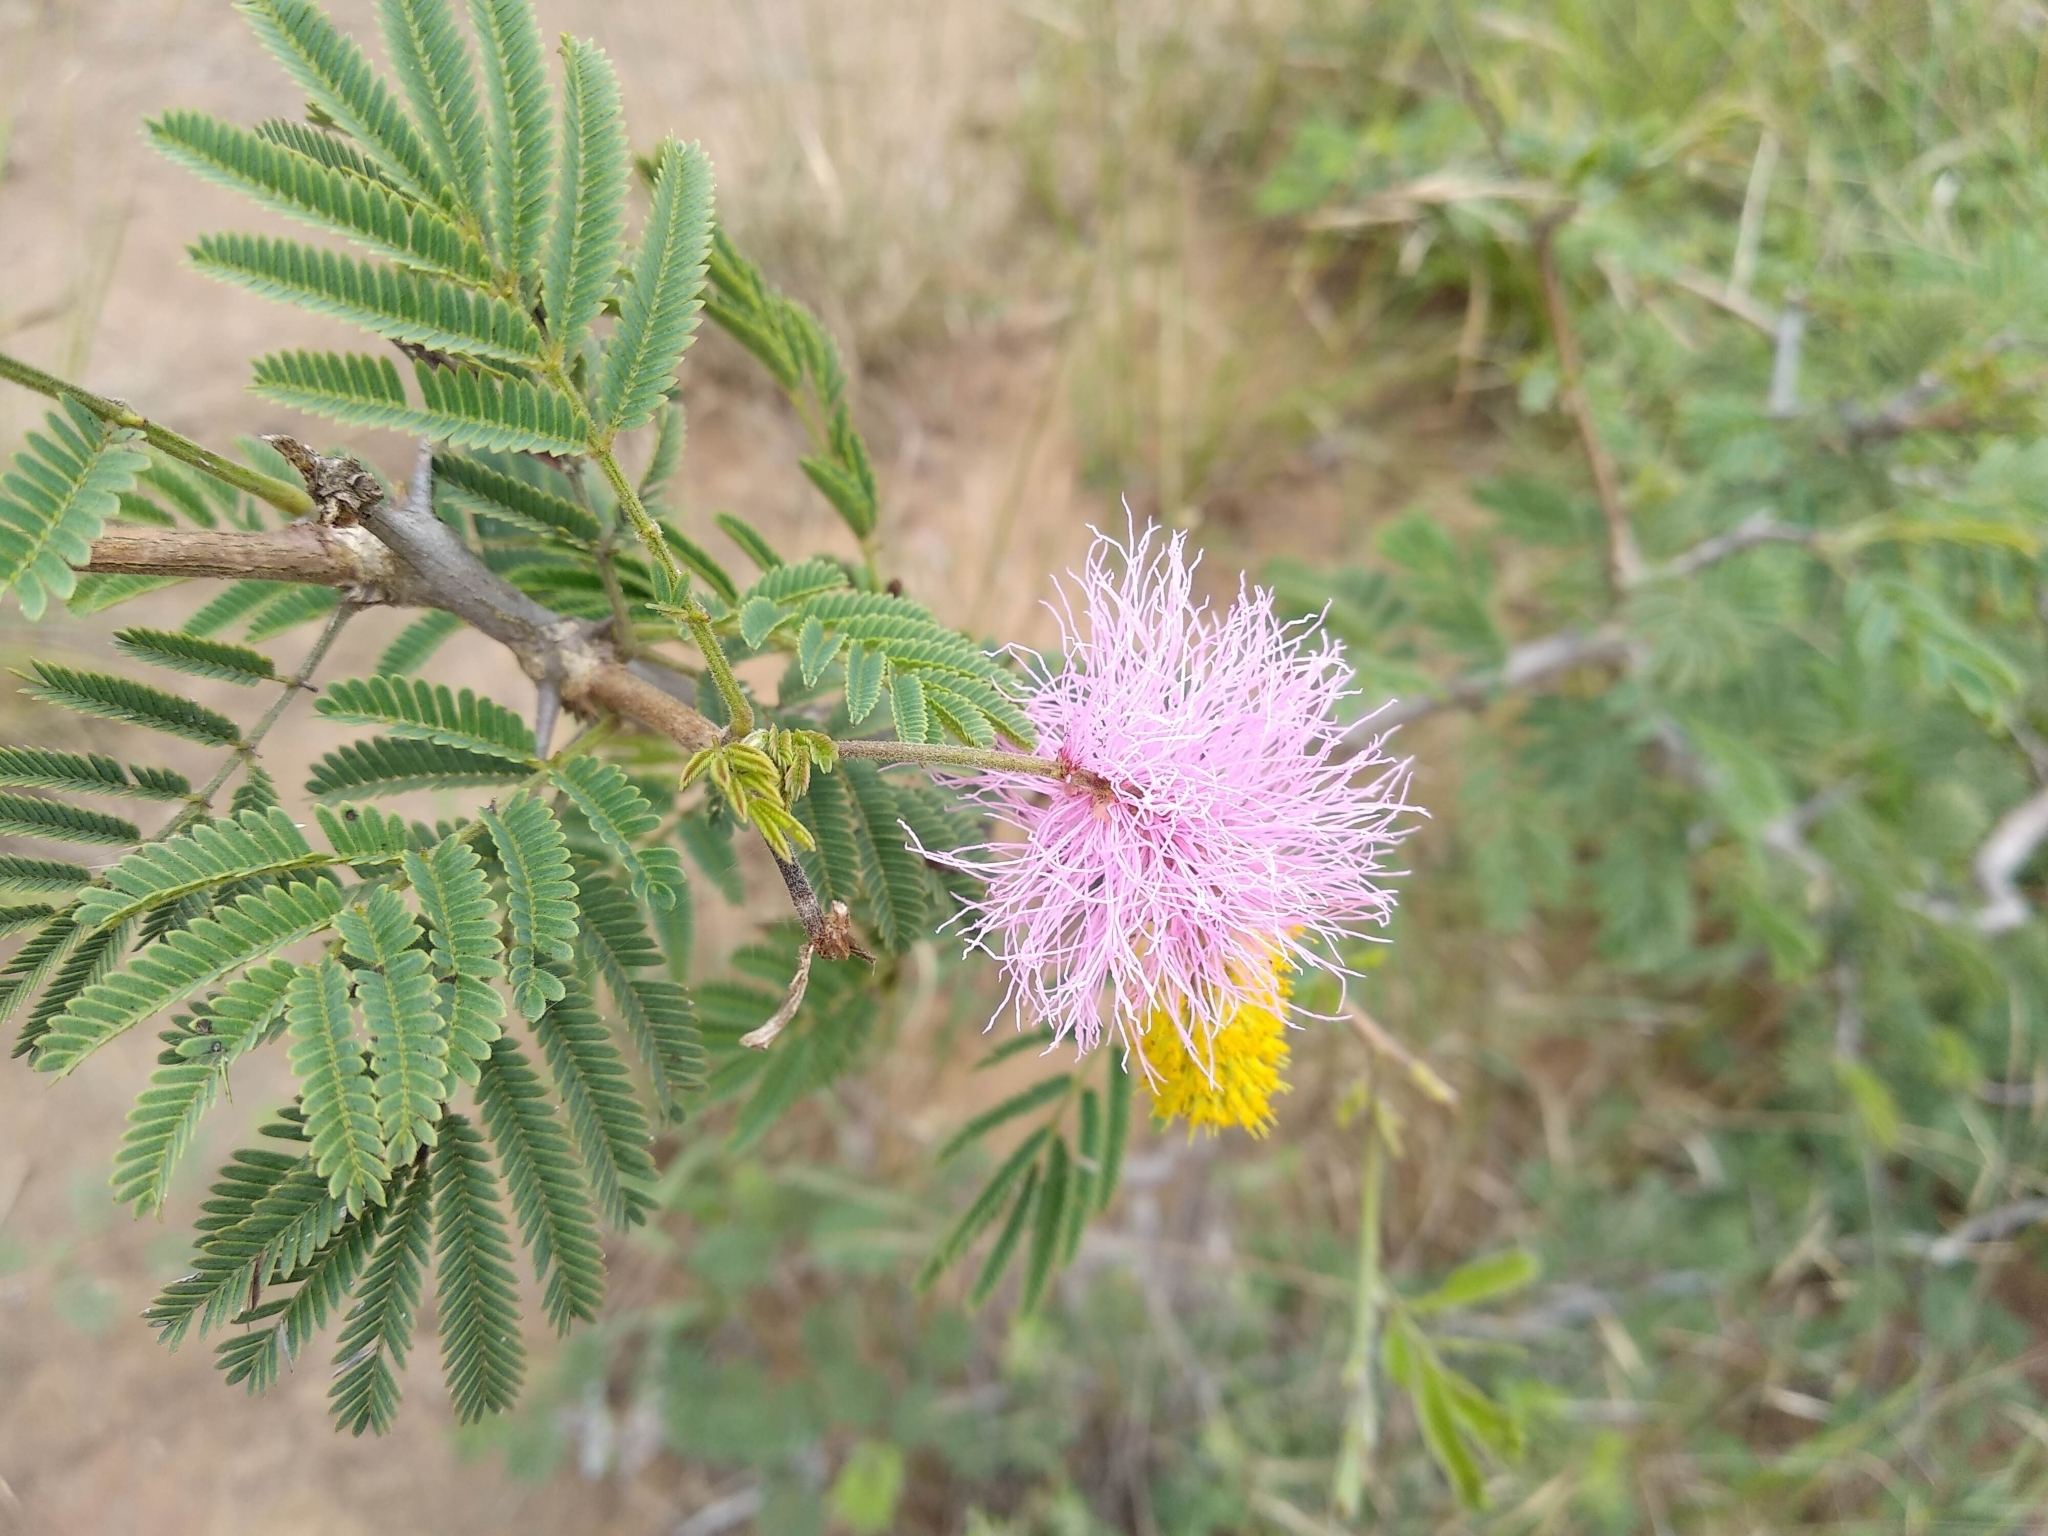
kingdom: Plantae
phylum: Tracheophyta
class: Magnoliopsida
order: Fabales
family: Fabaceae
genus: Dichrostachys
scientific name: Dichrostachys cinerea
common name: Sicklebush
